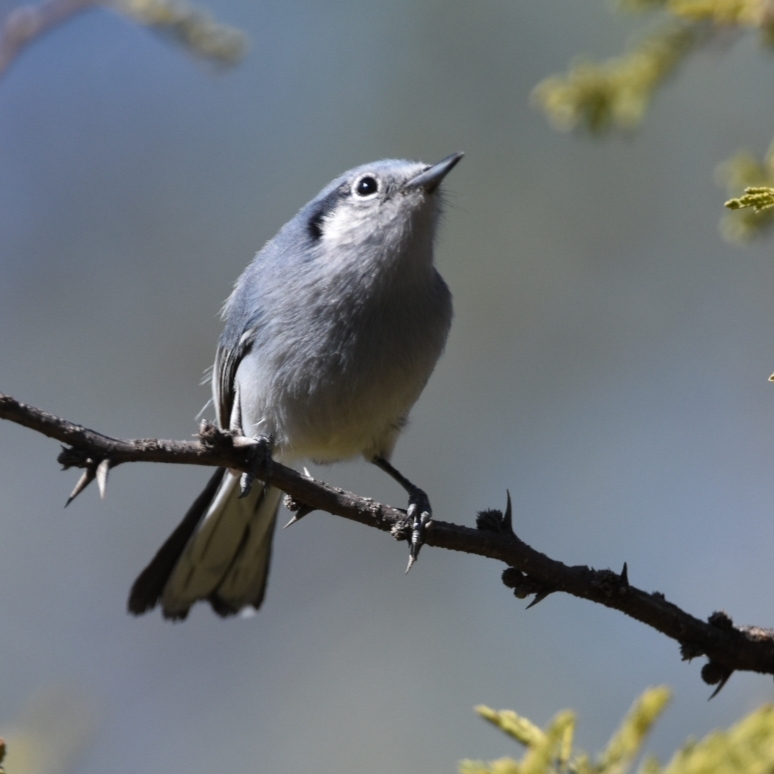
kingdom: Animalia
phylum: Chordata
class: Aves
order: Passeriformes
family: Polioptilidae
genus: Polioptila
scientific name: Polioptila dumicola
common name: Masked gnatcatcher
